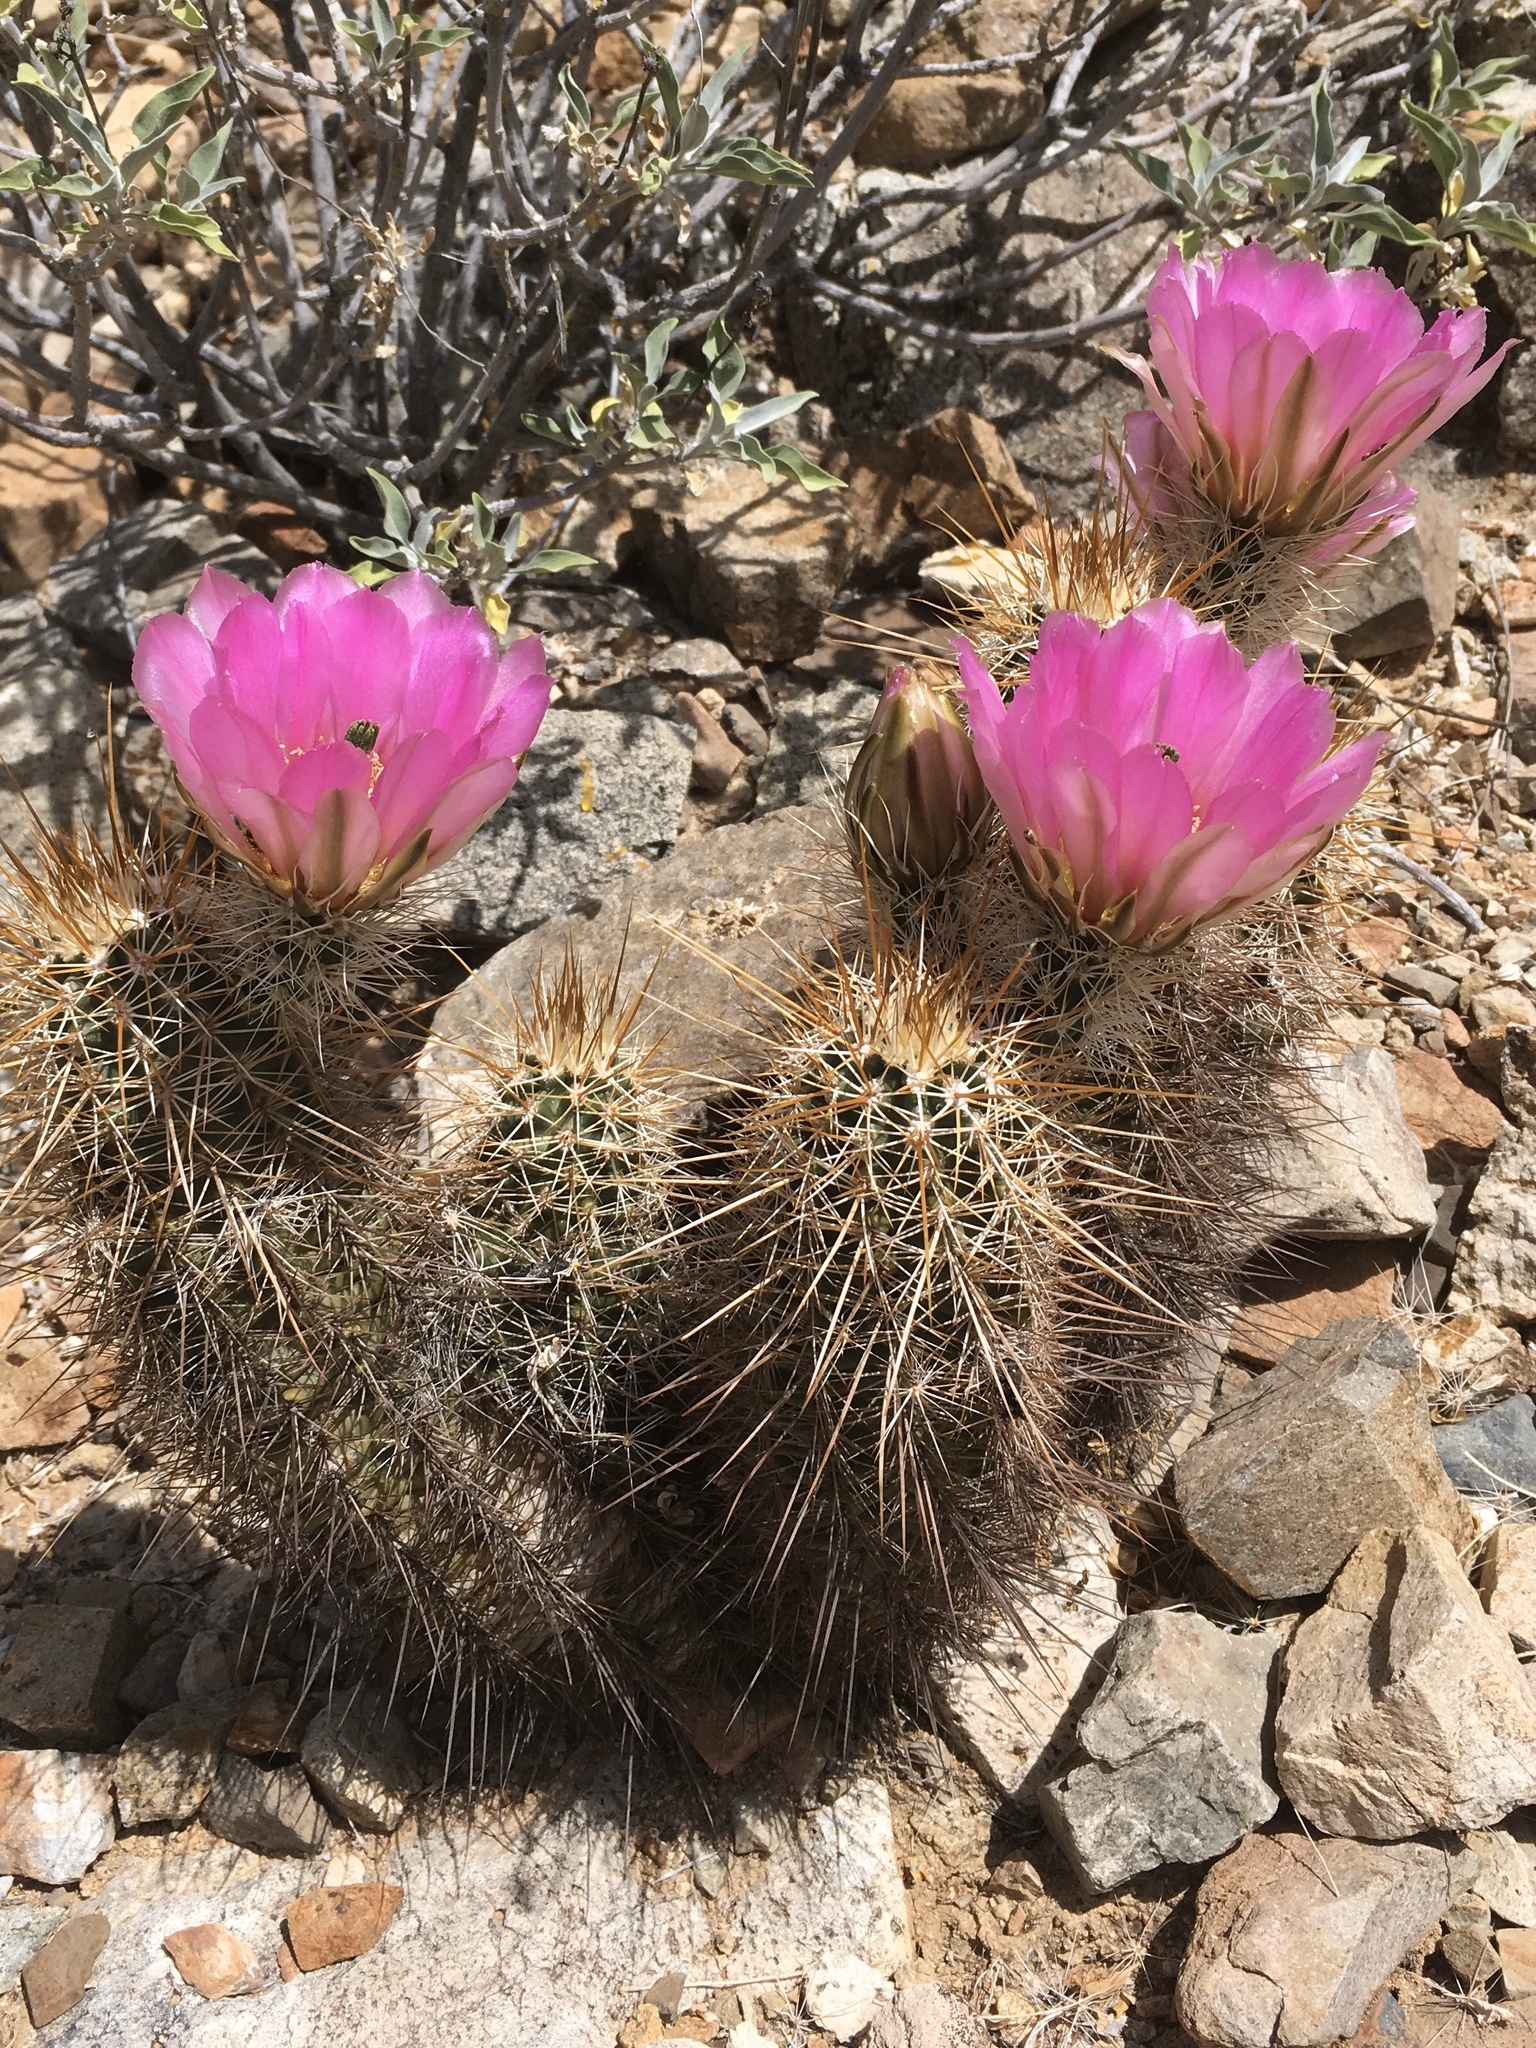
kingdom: Plantae
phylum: Tracheophyta
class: Magnoliopsida
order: Caryophyllales
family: Cactaceae
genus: Echinocereus
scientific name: Echinocereus engelmannii
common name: Engelmann's hedgehog cactus
